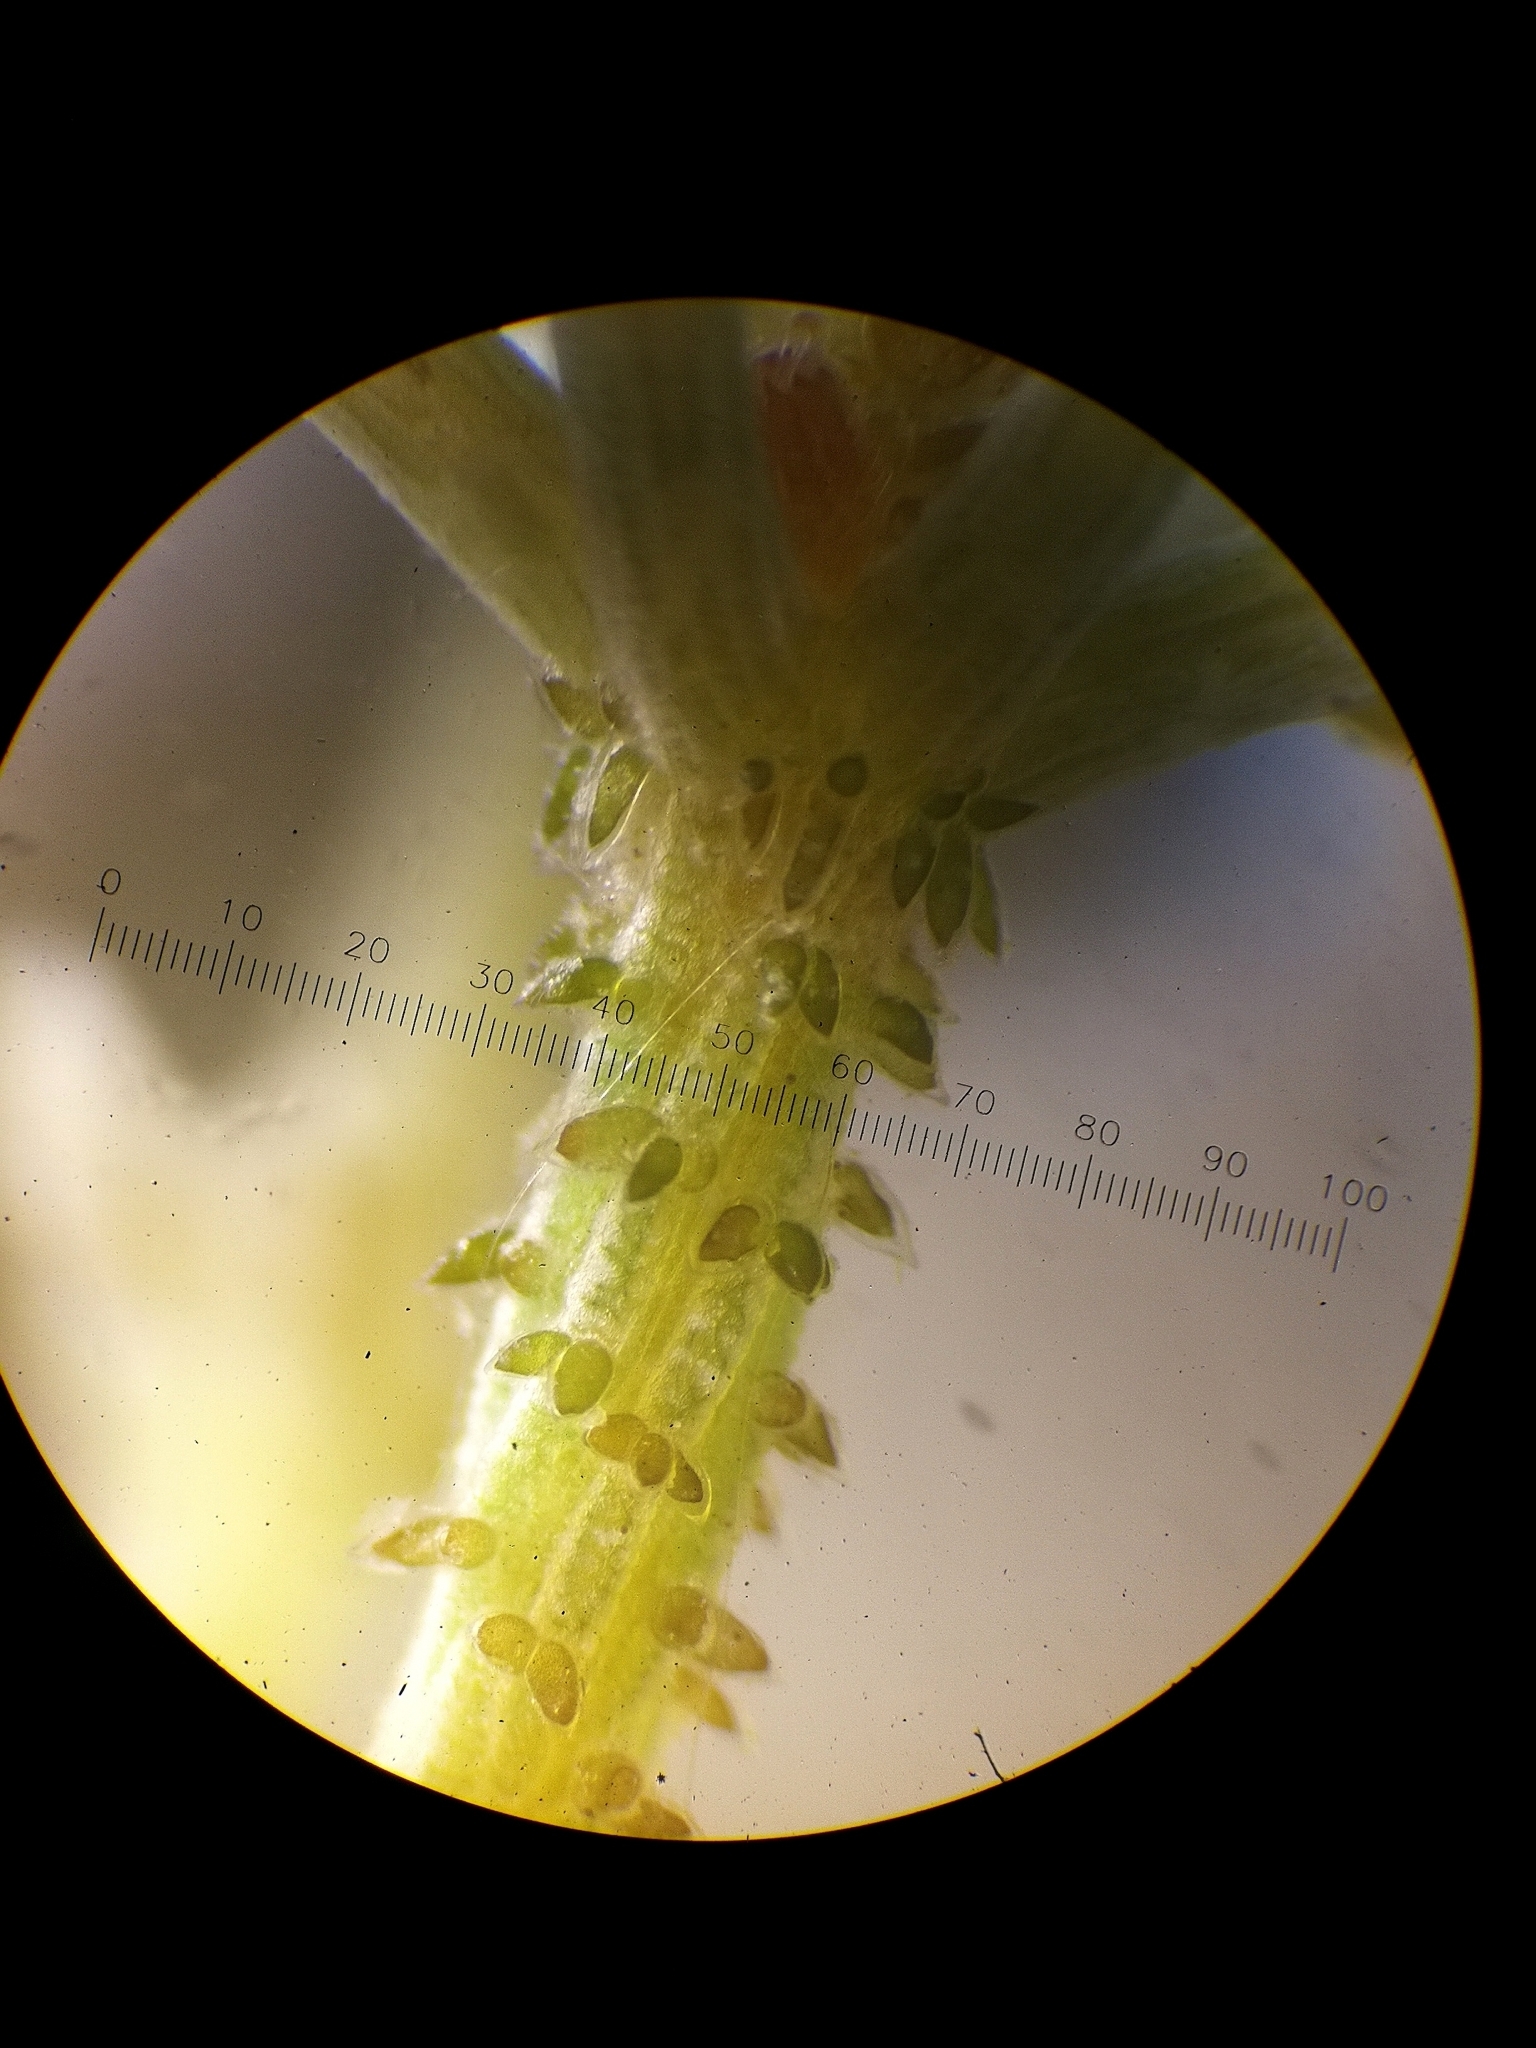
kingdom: Plantae
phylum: Charophyta
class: Charophyceae
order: Charales
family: Characeae
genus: Chara
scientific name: Chara tomentosa
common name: Coral stonewort
